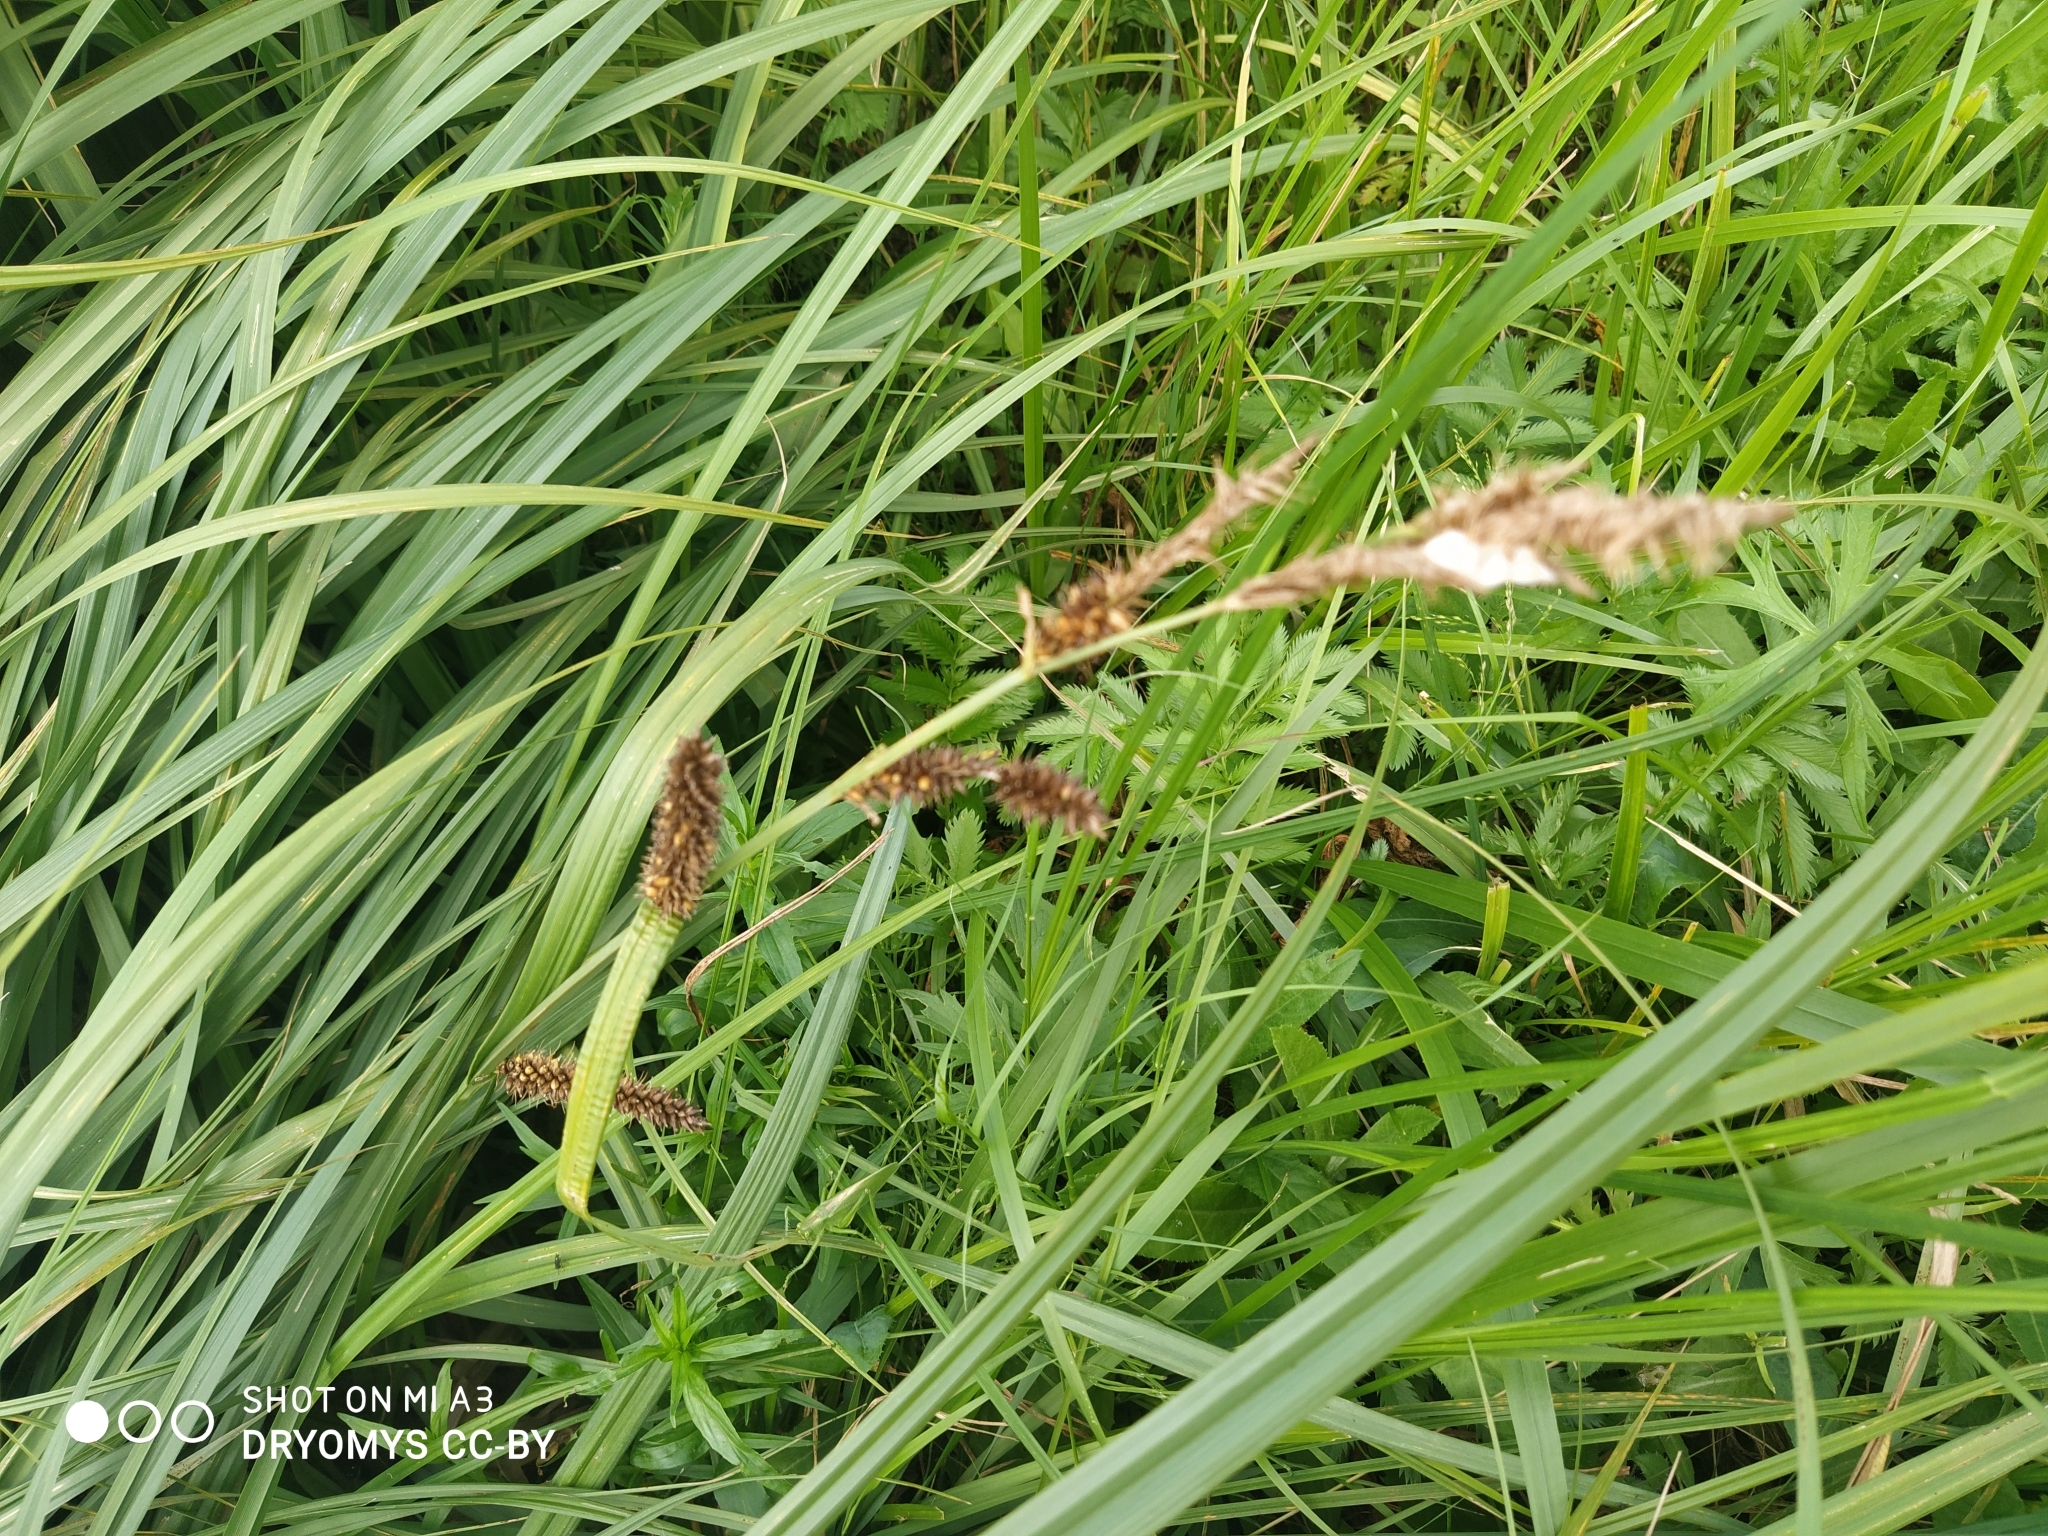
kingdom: Plantae
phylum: Tracheophyta
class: Liliopsida
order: Poales
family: Cyperaceae
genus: Carex
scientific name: Carex riparia
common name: Greater pond-sedge
